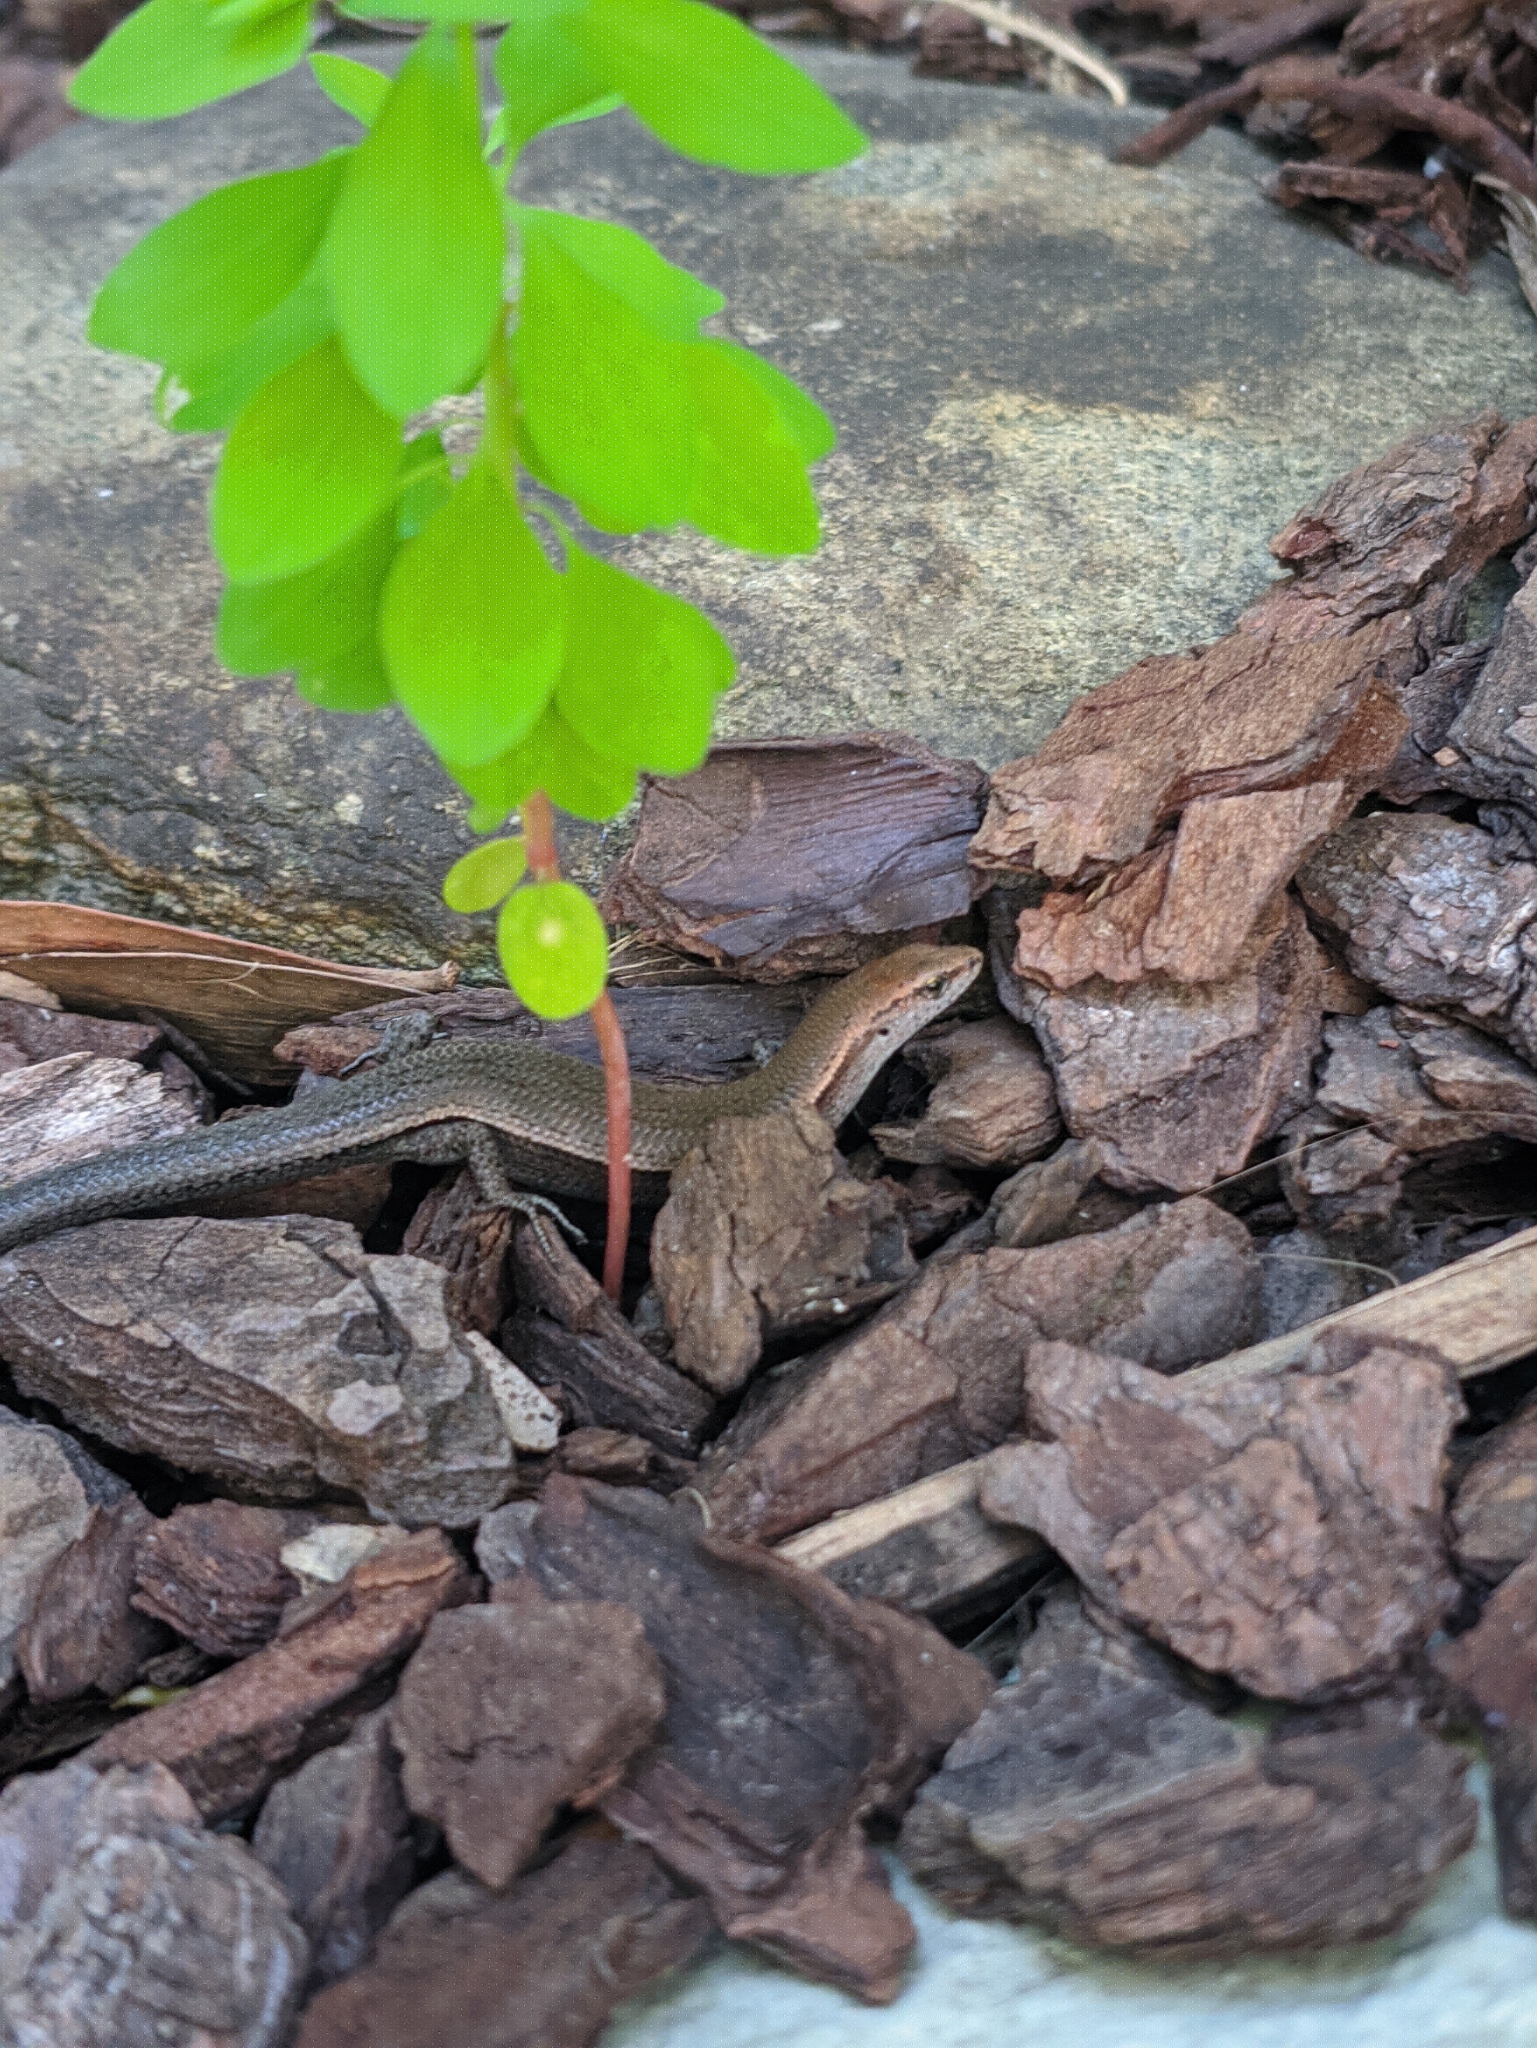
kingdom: Animalia
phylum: Chordata
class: Squamata
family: Scincidae
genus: Lampropholis
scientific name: Lampropholis delicata
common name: Plague skink
